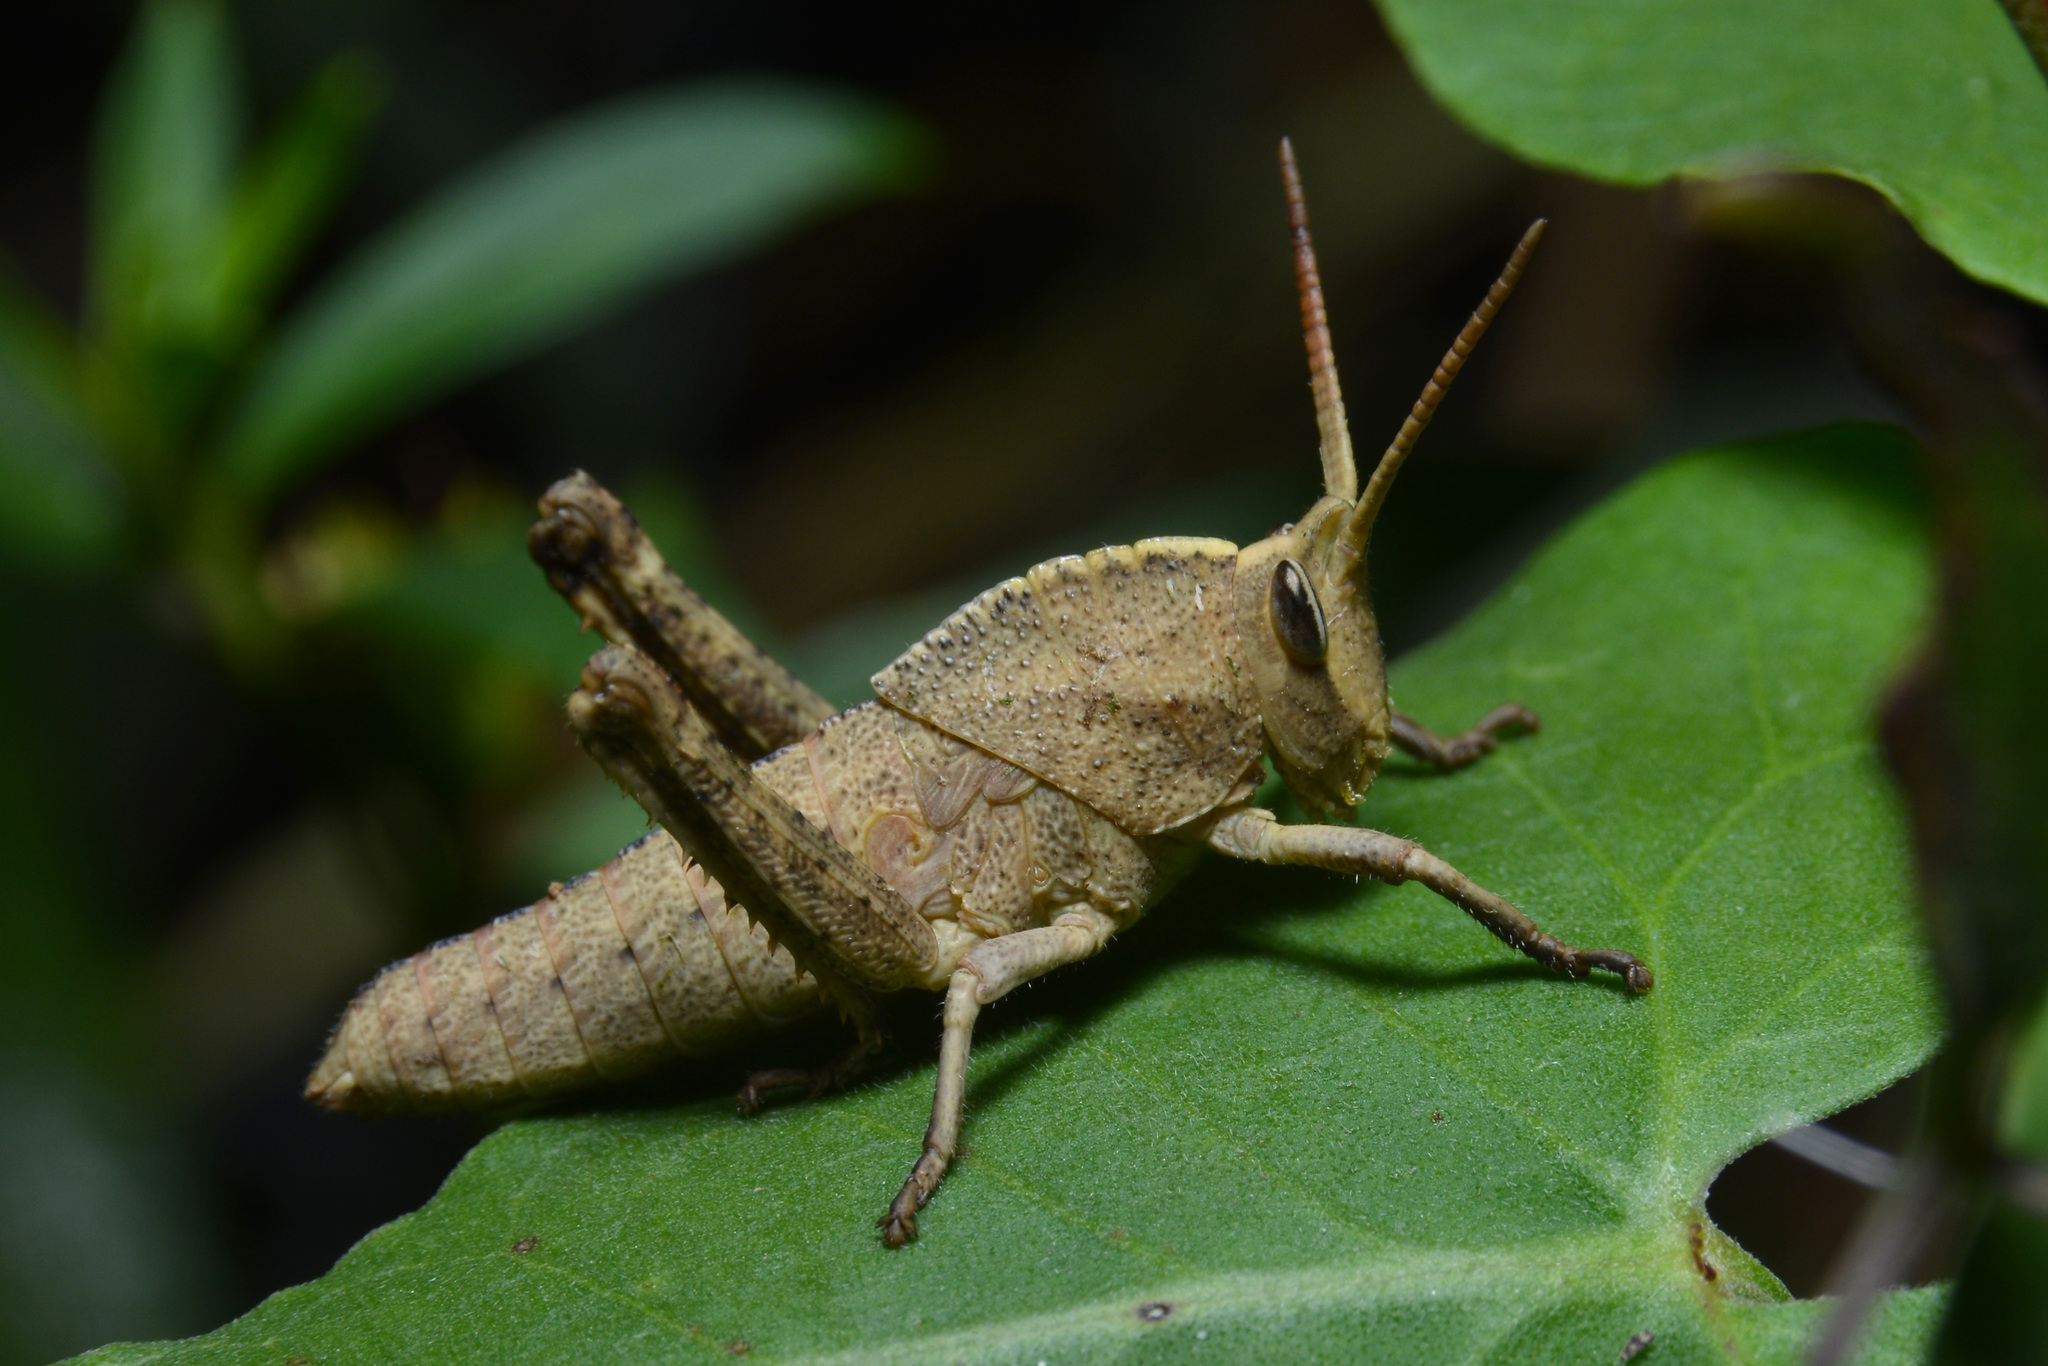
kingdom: Animalia
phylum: Arthropoda
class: Insecta
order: Orthoptera
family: Romaleidae
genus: Staleochlora
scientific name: Staleochlora viridicata
